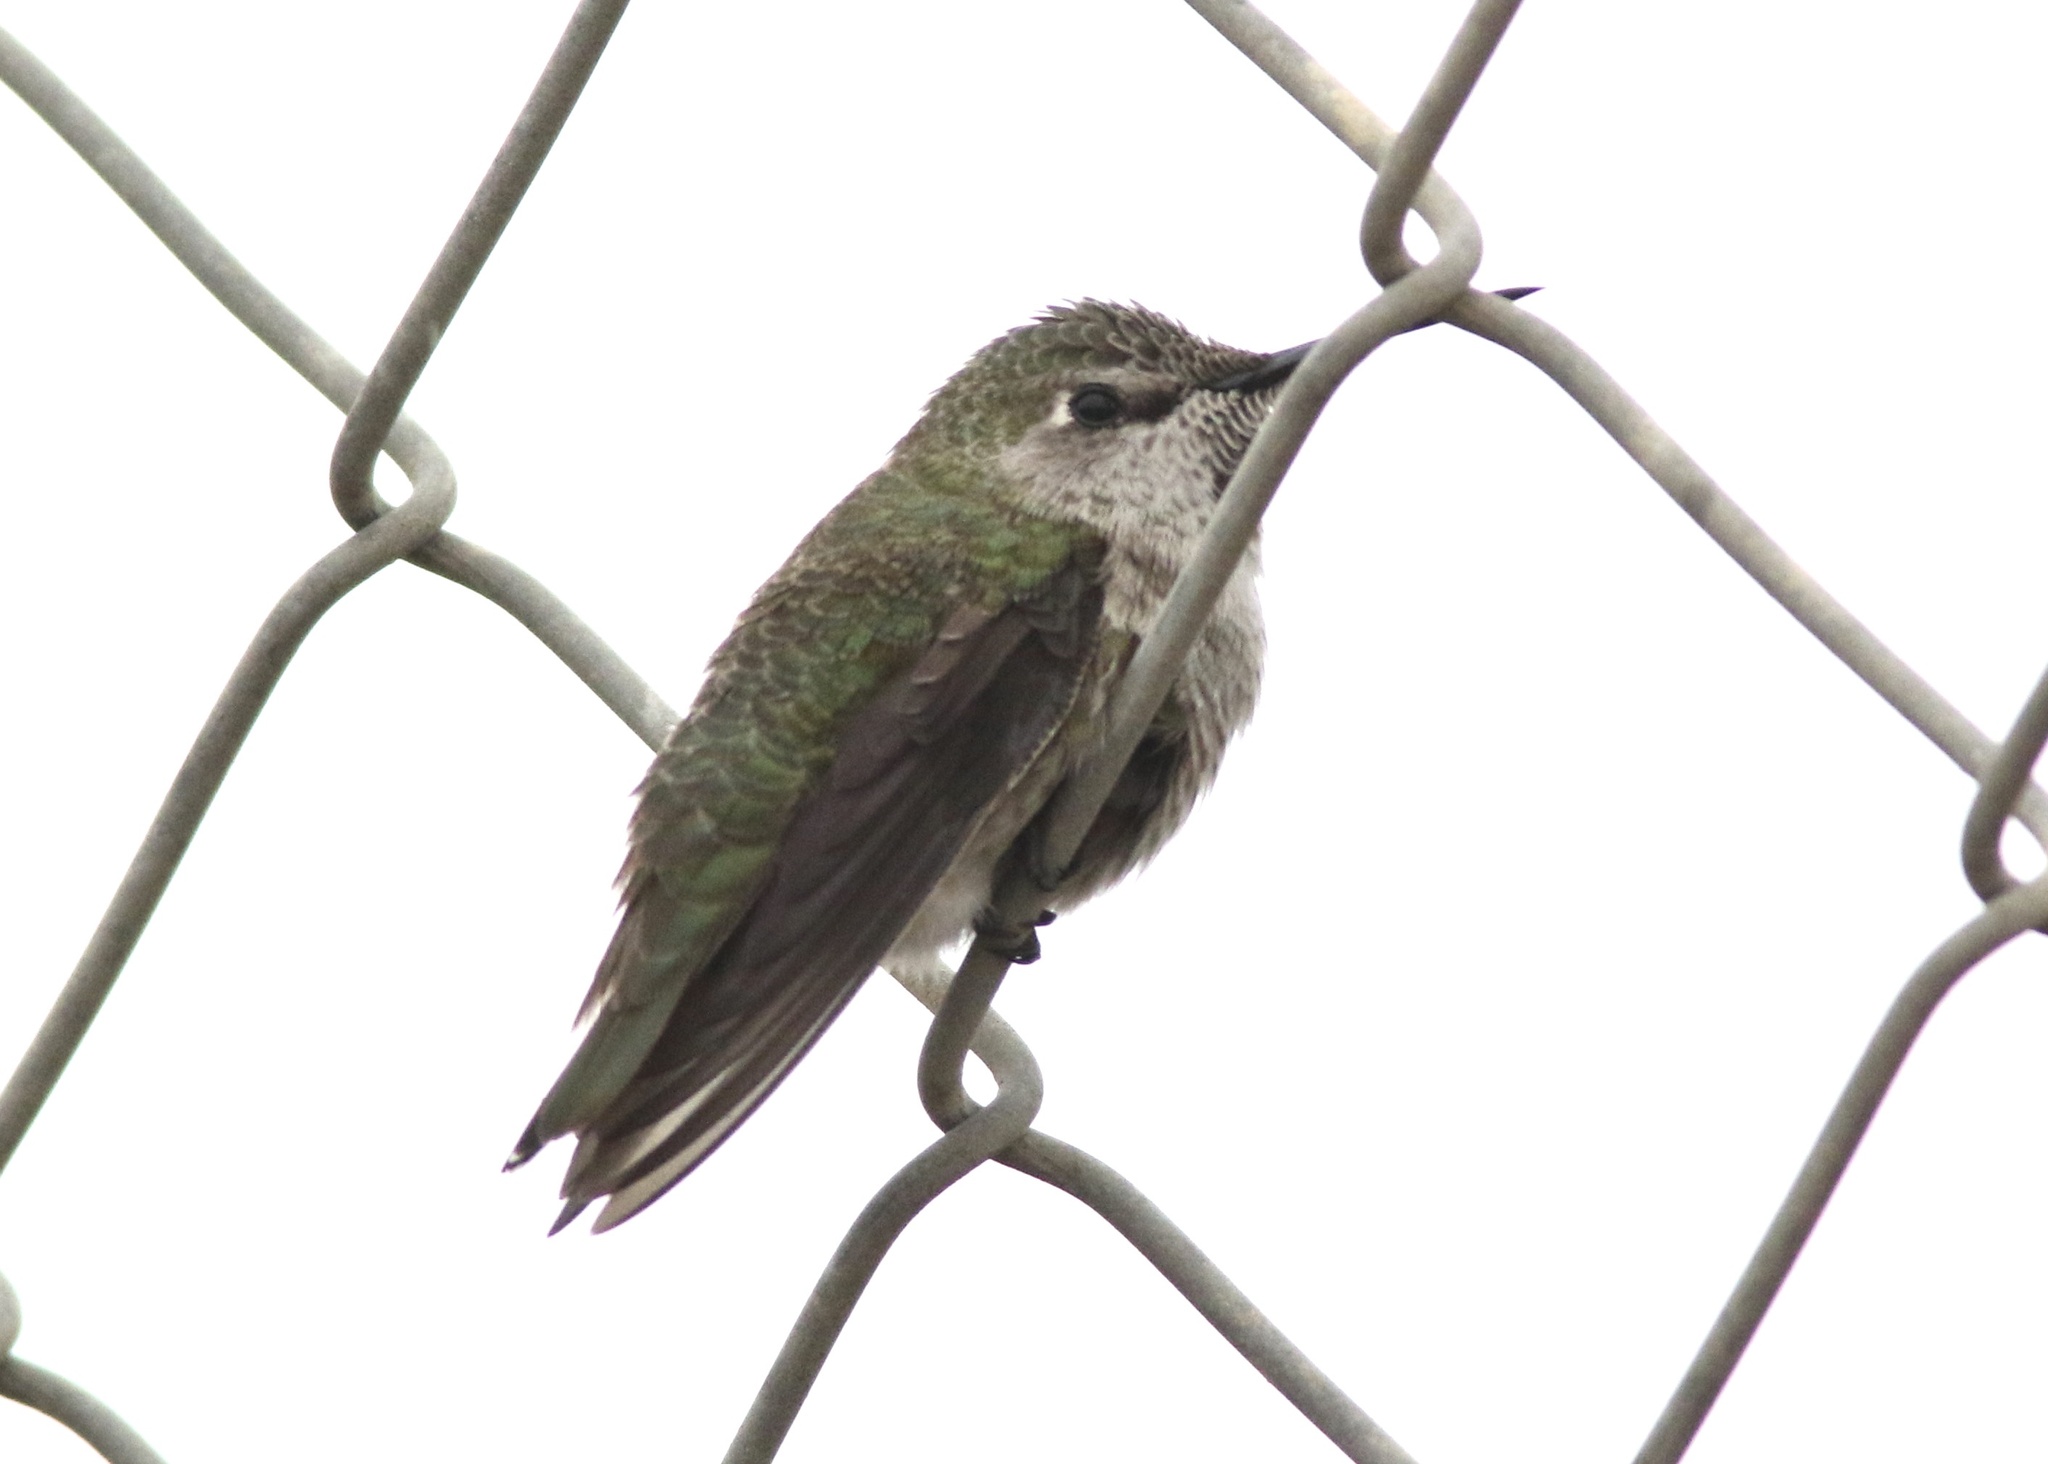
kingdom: Animalia
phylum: Chordata
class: Aves
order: Apodiformes
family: Trochilidae
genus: Calypte
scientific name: Calypte anna
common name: Anna's hummingbird
